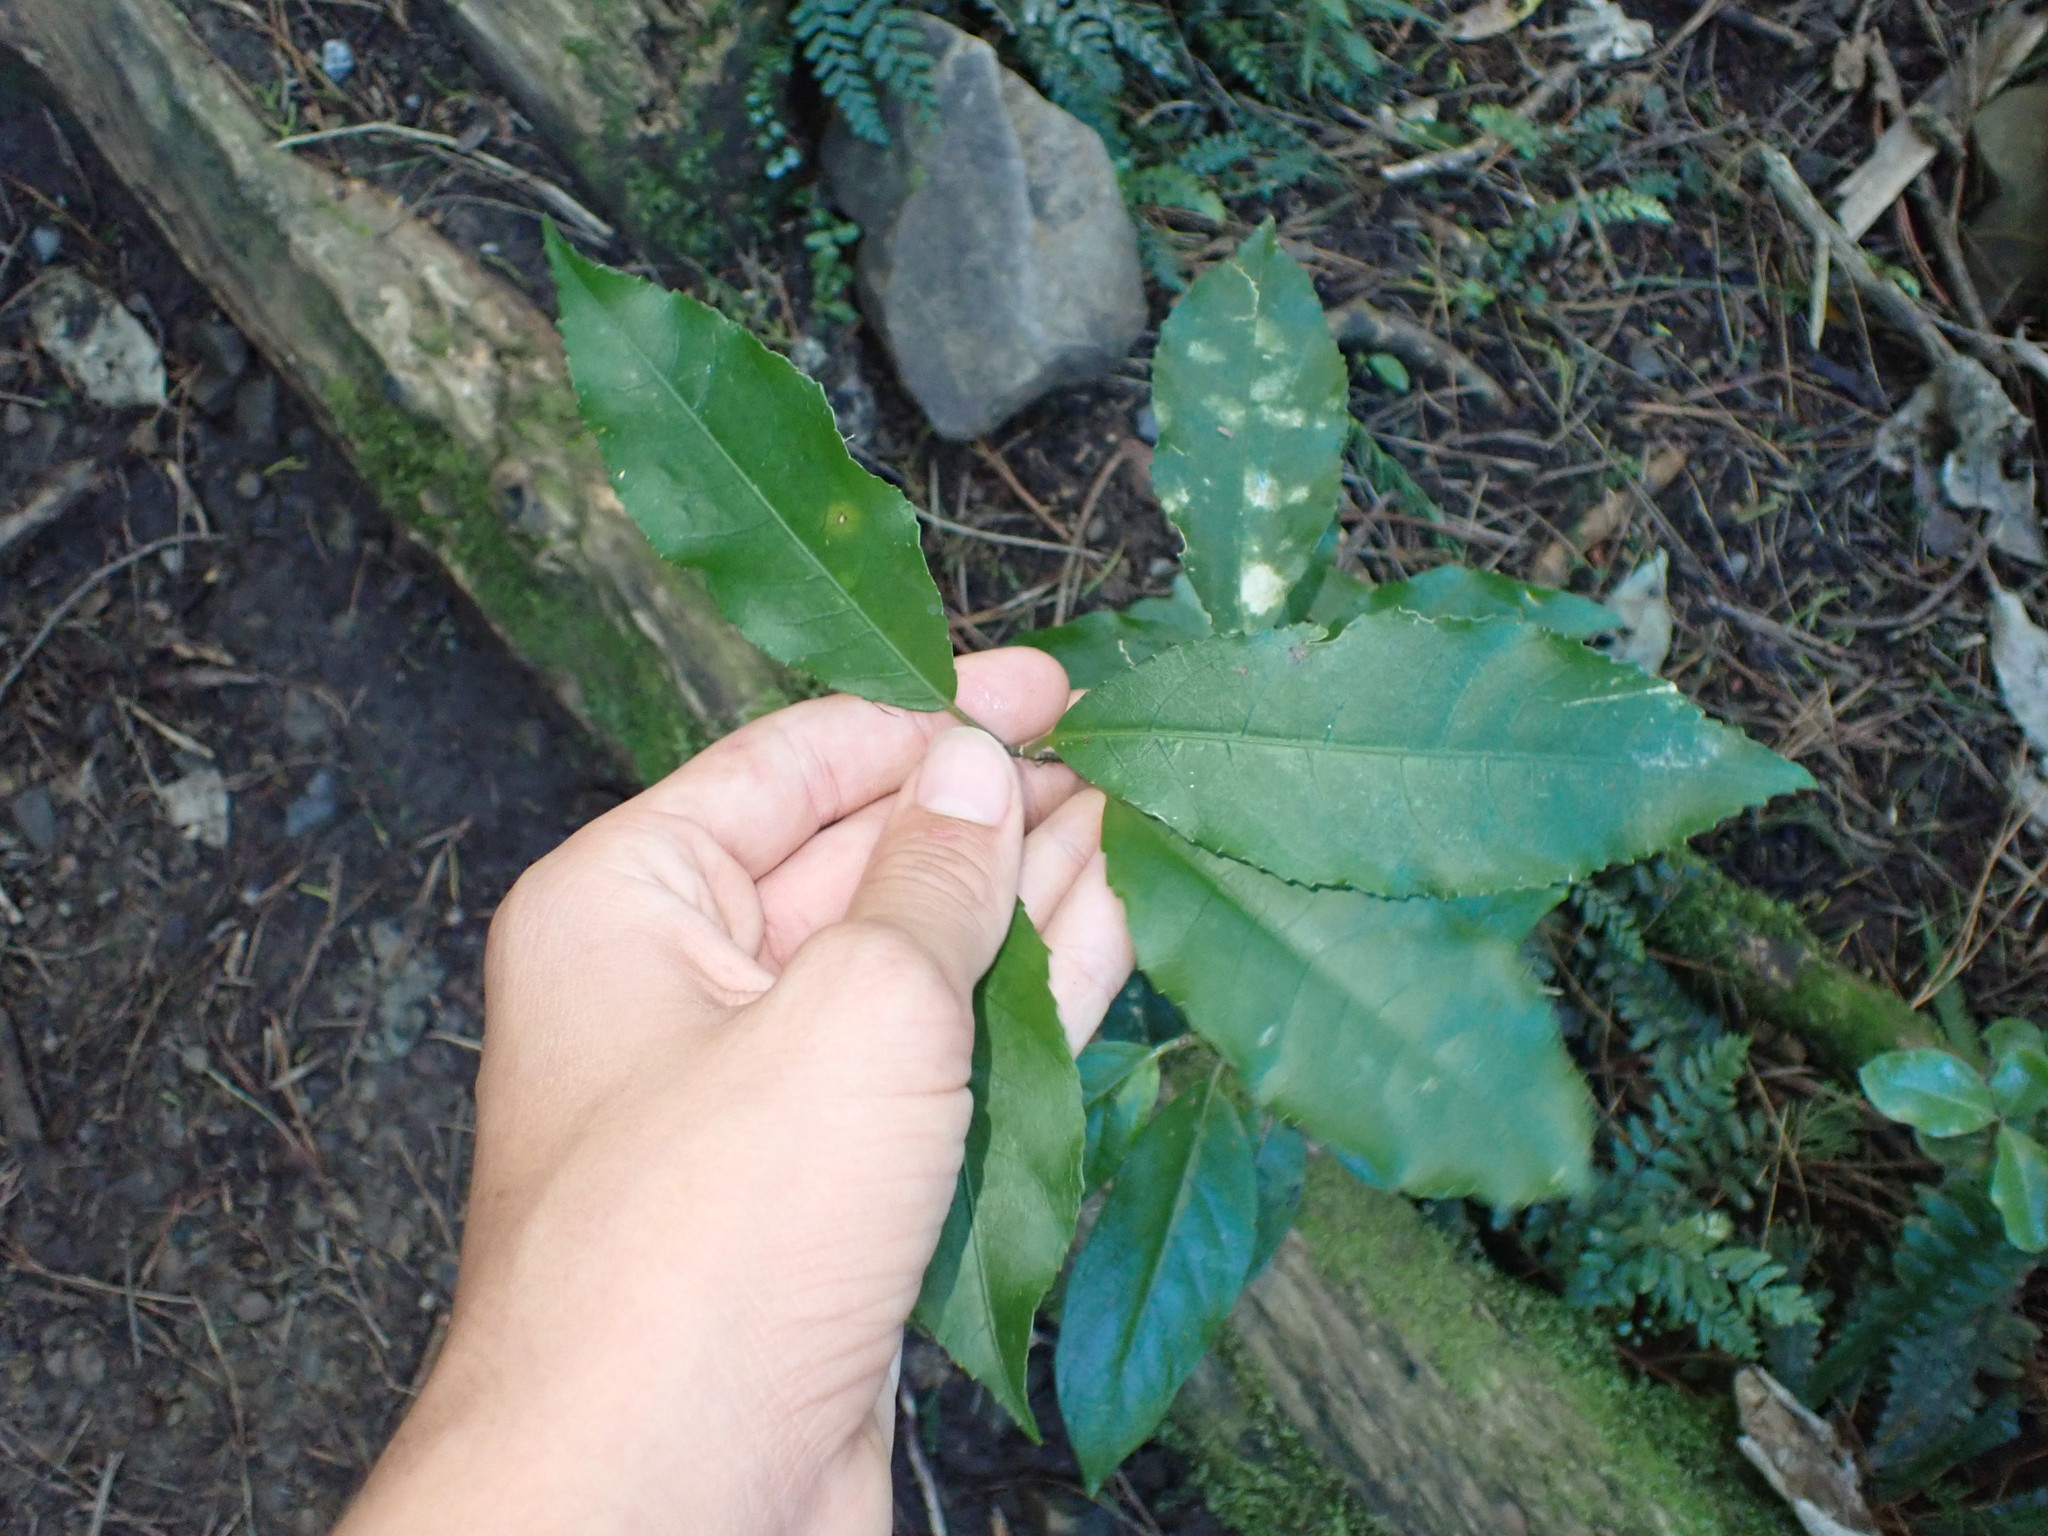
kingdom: Plantae
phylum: Tracheophyta
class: Magnoliopsida
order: Malpighiales
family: Violaceae
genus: Melicytus
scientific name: Melicytus ramiflorus
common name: Mahoe
